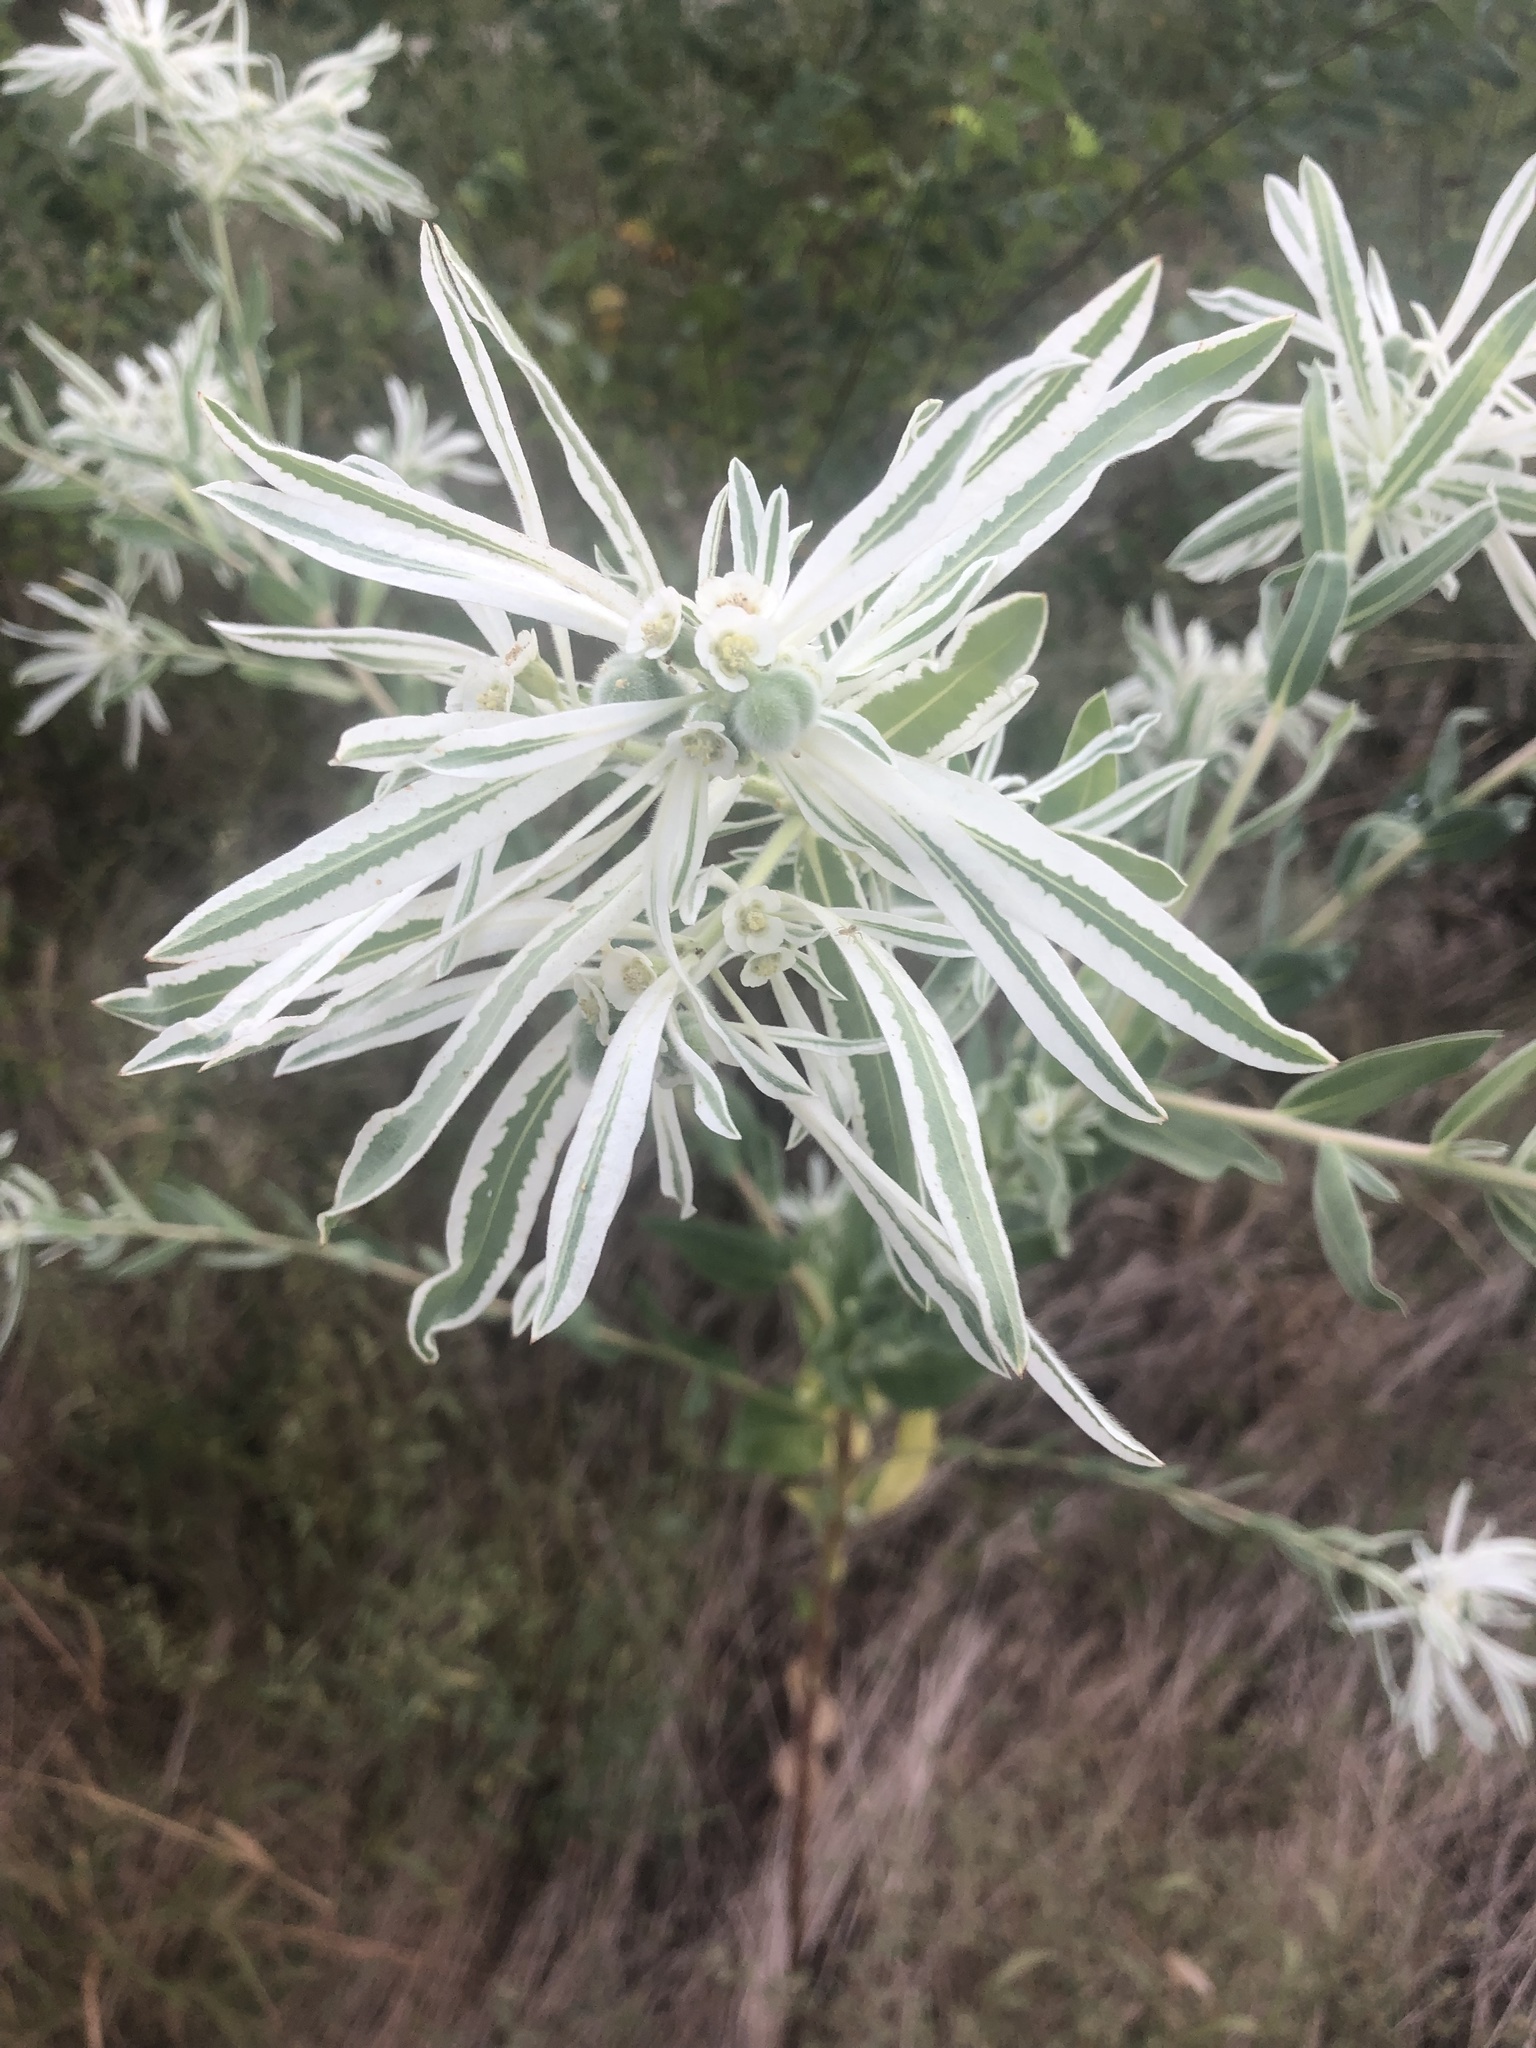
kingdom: Plantae
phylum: Tracheophyta
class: Magnoliopsida
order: Malpighiales
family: Euphorbiaceae
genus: Euphorbia
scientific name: Euphorbia bicolor
